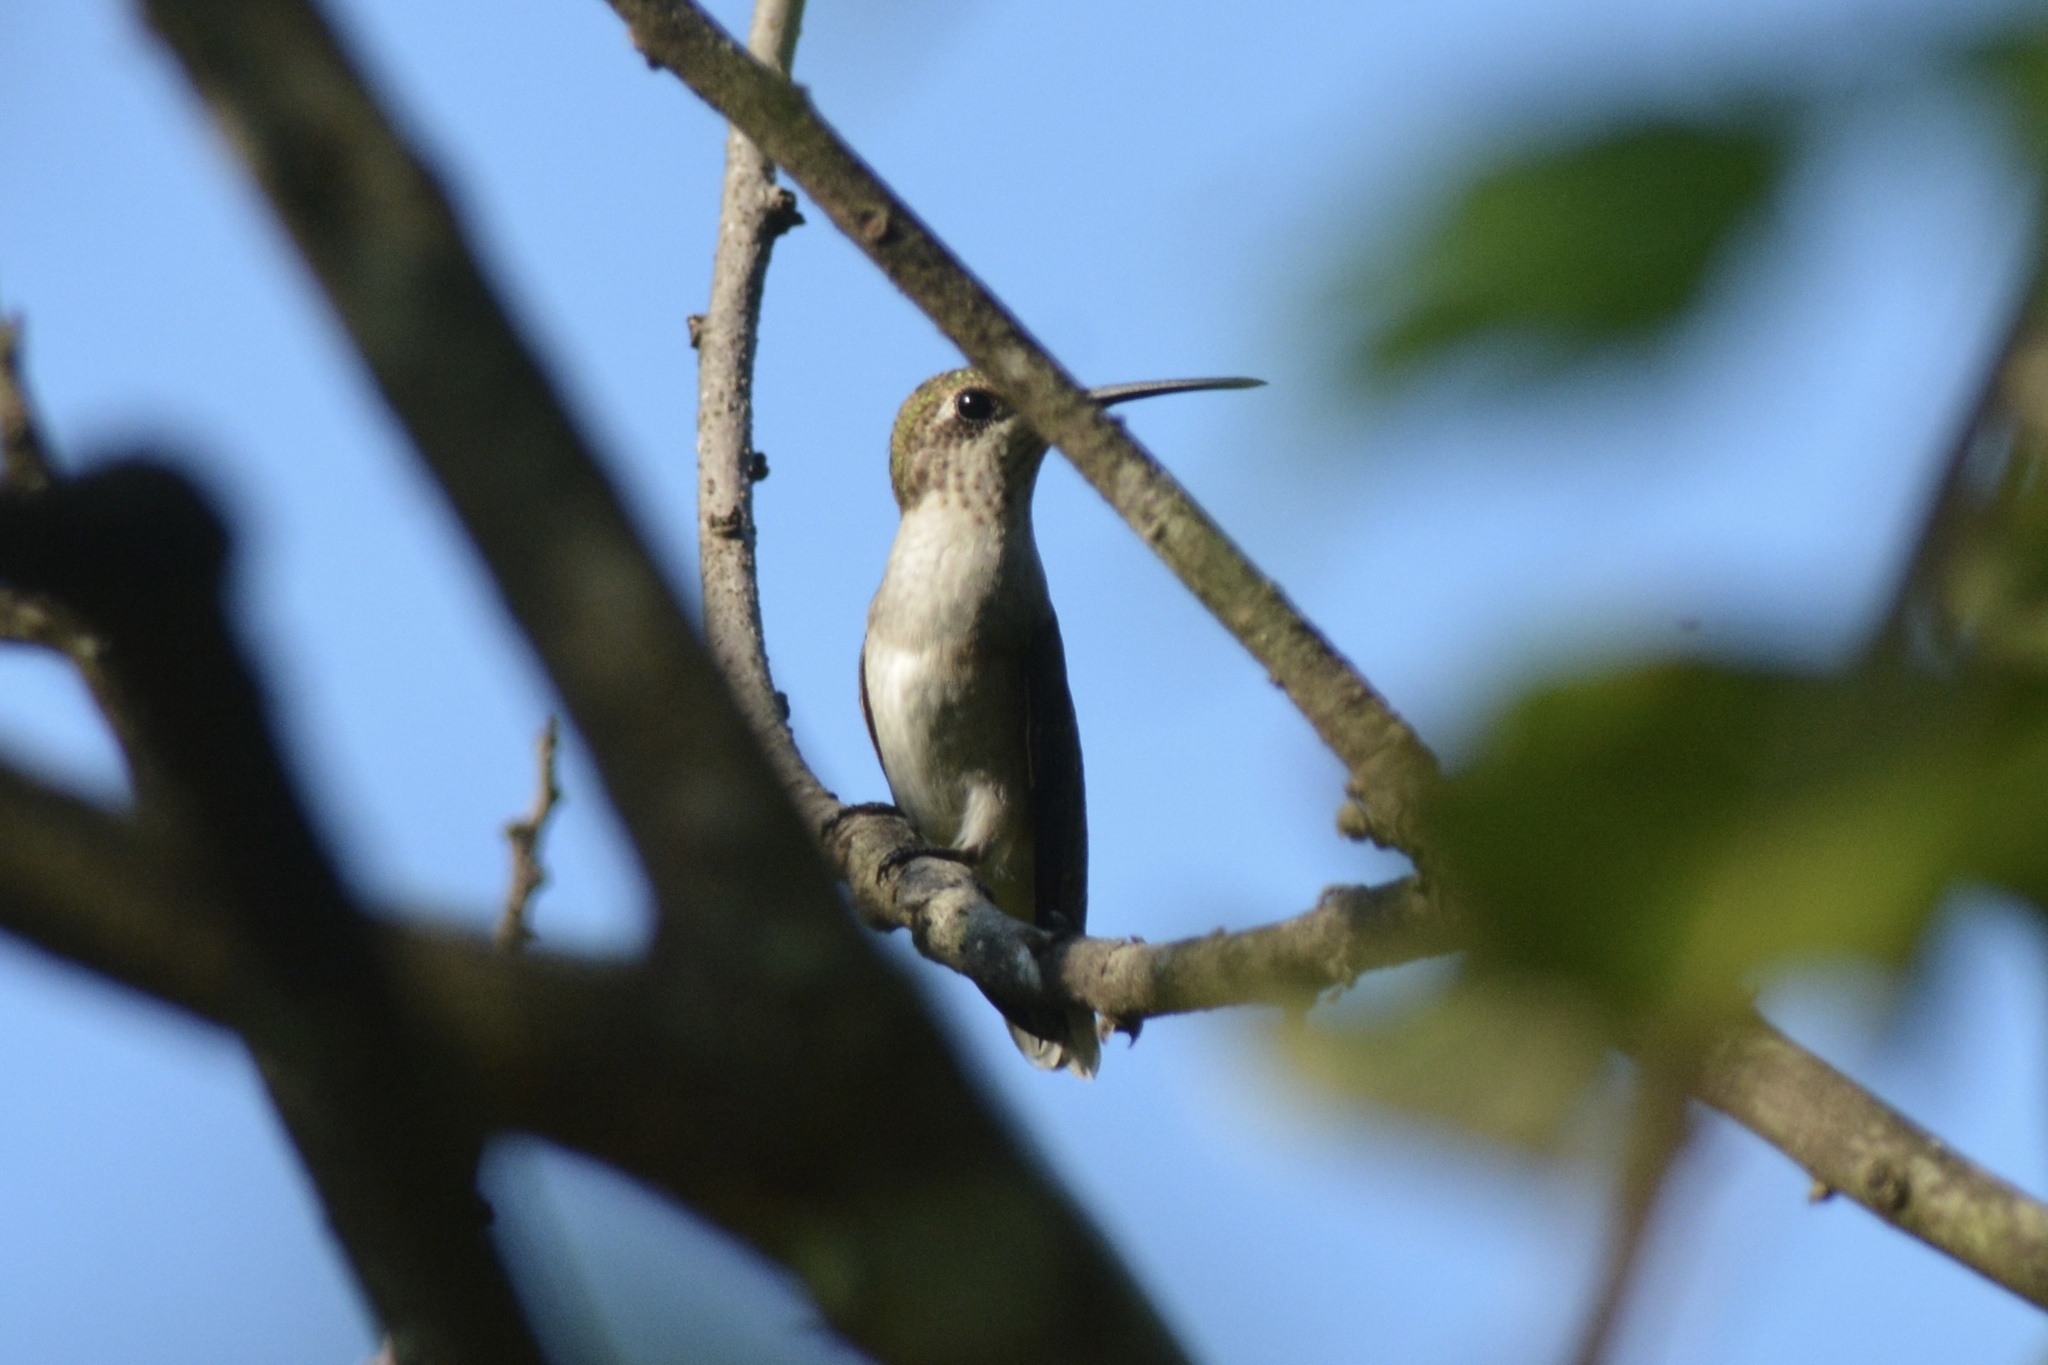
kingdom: Animalia
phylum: Chordata
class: Aves
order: Apodiformes
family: Trochilidae
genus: Archilochus
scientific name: Archilochus colubris
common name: Ruby-throated hummingbird
